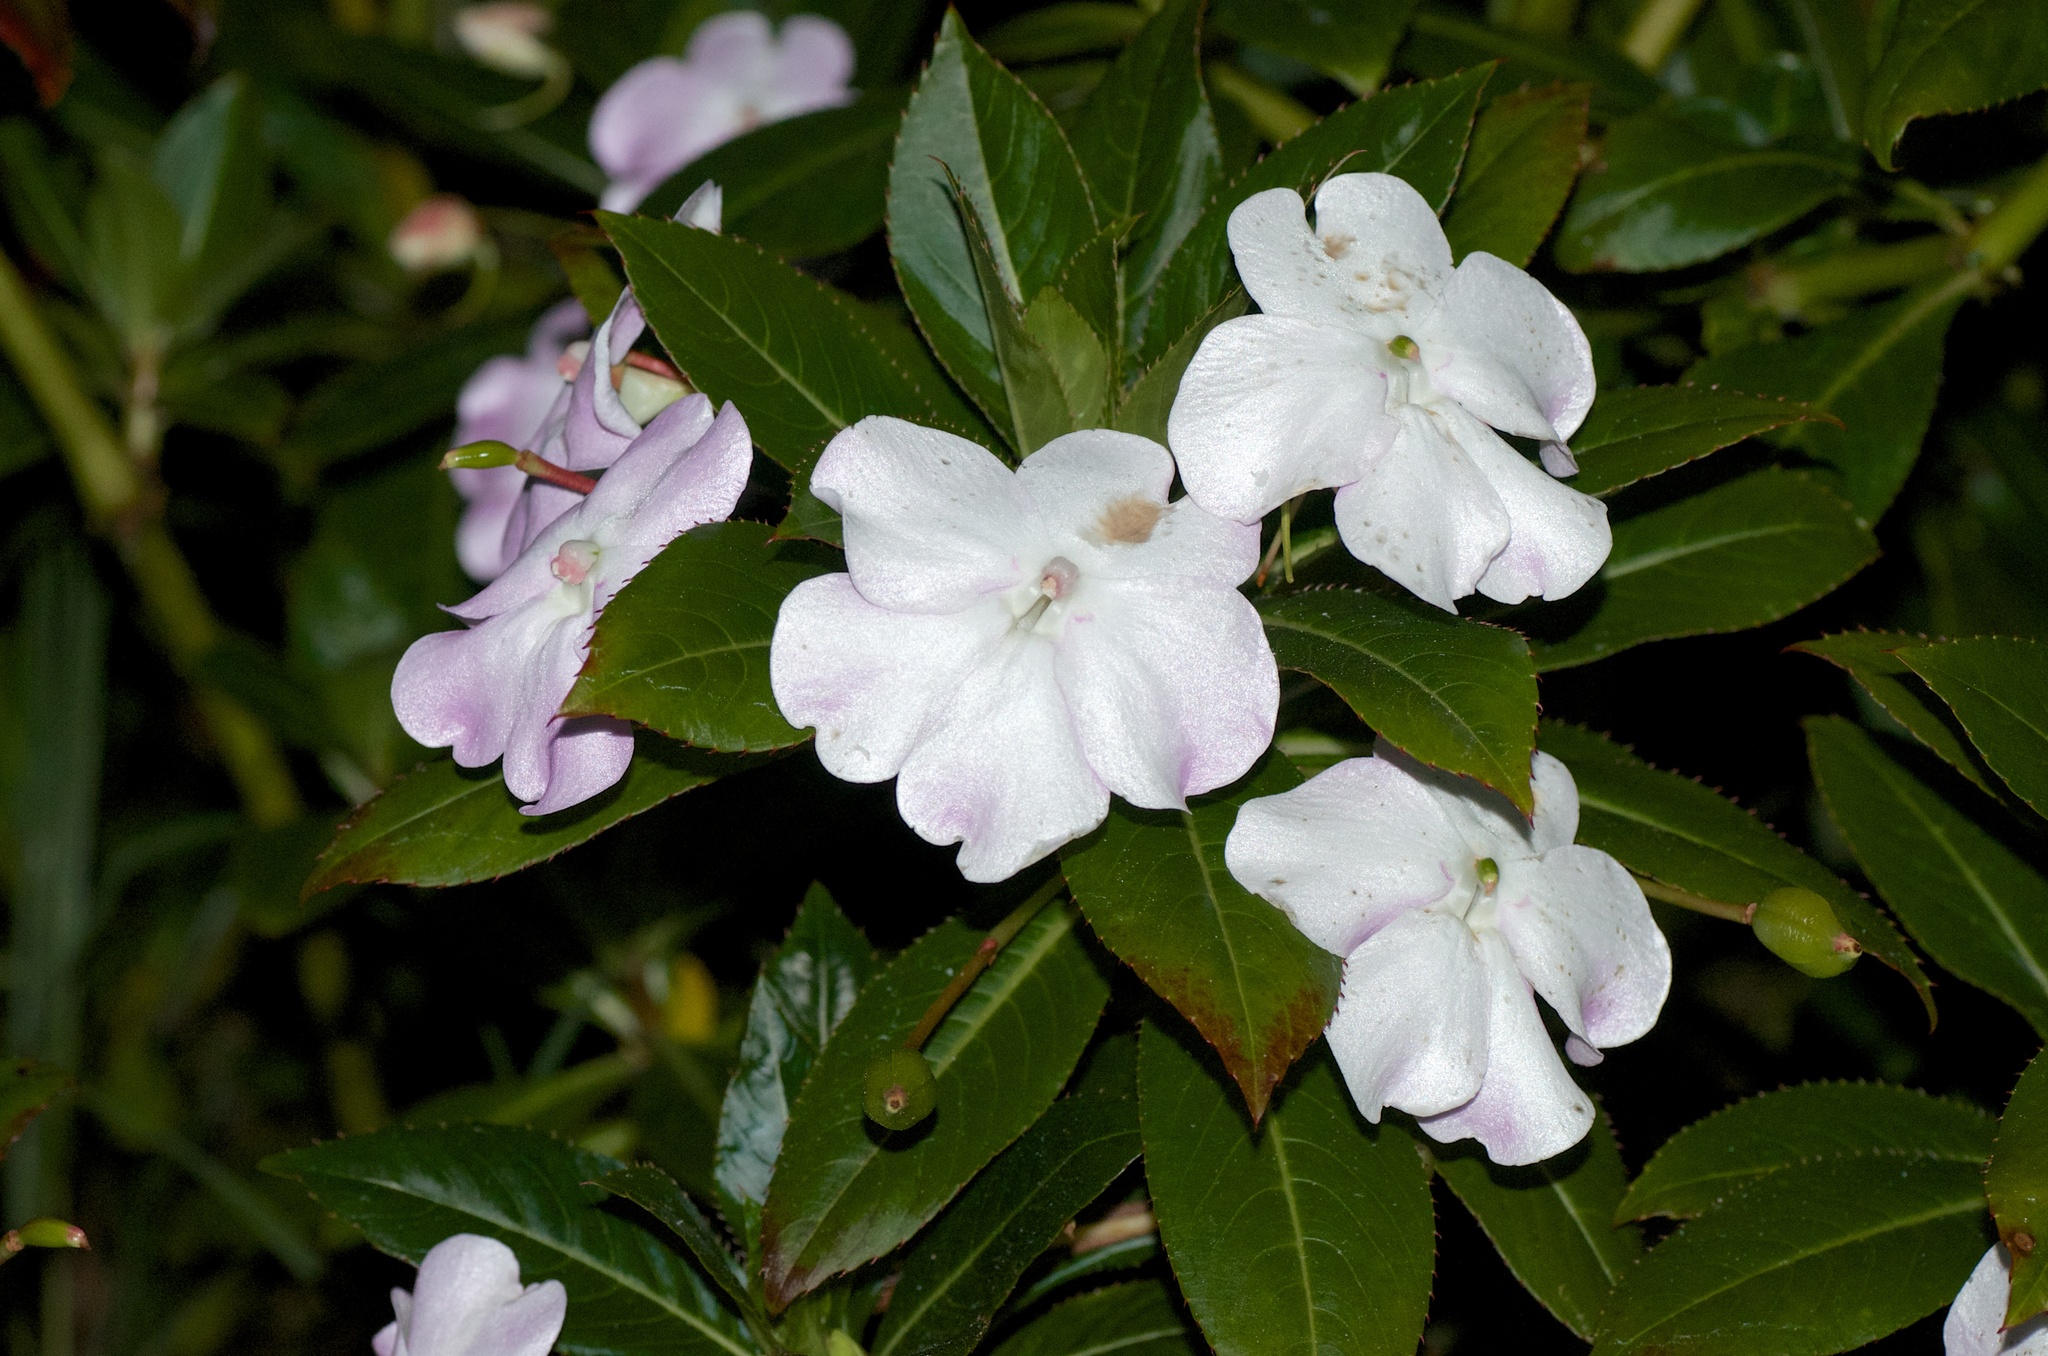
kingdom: Plantae
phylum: Tracheophyta
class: Magnoliopsida
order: Ericales
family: Balsaminaceae
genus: Impatiens
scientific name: Impatiens sodenii
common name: Oliver's touch-me-not
